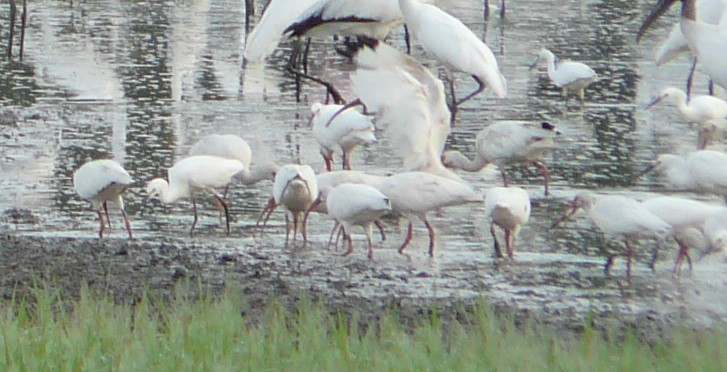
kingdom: Animalia
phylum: Chordata
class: Aves
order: Pelecaniformes
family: Threskiornithidae
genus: Eudocimus
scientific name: Eudocimus albus
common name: White ibis
